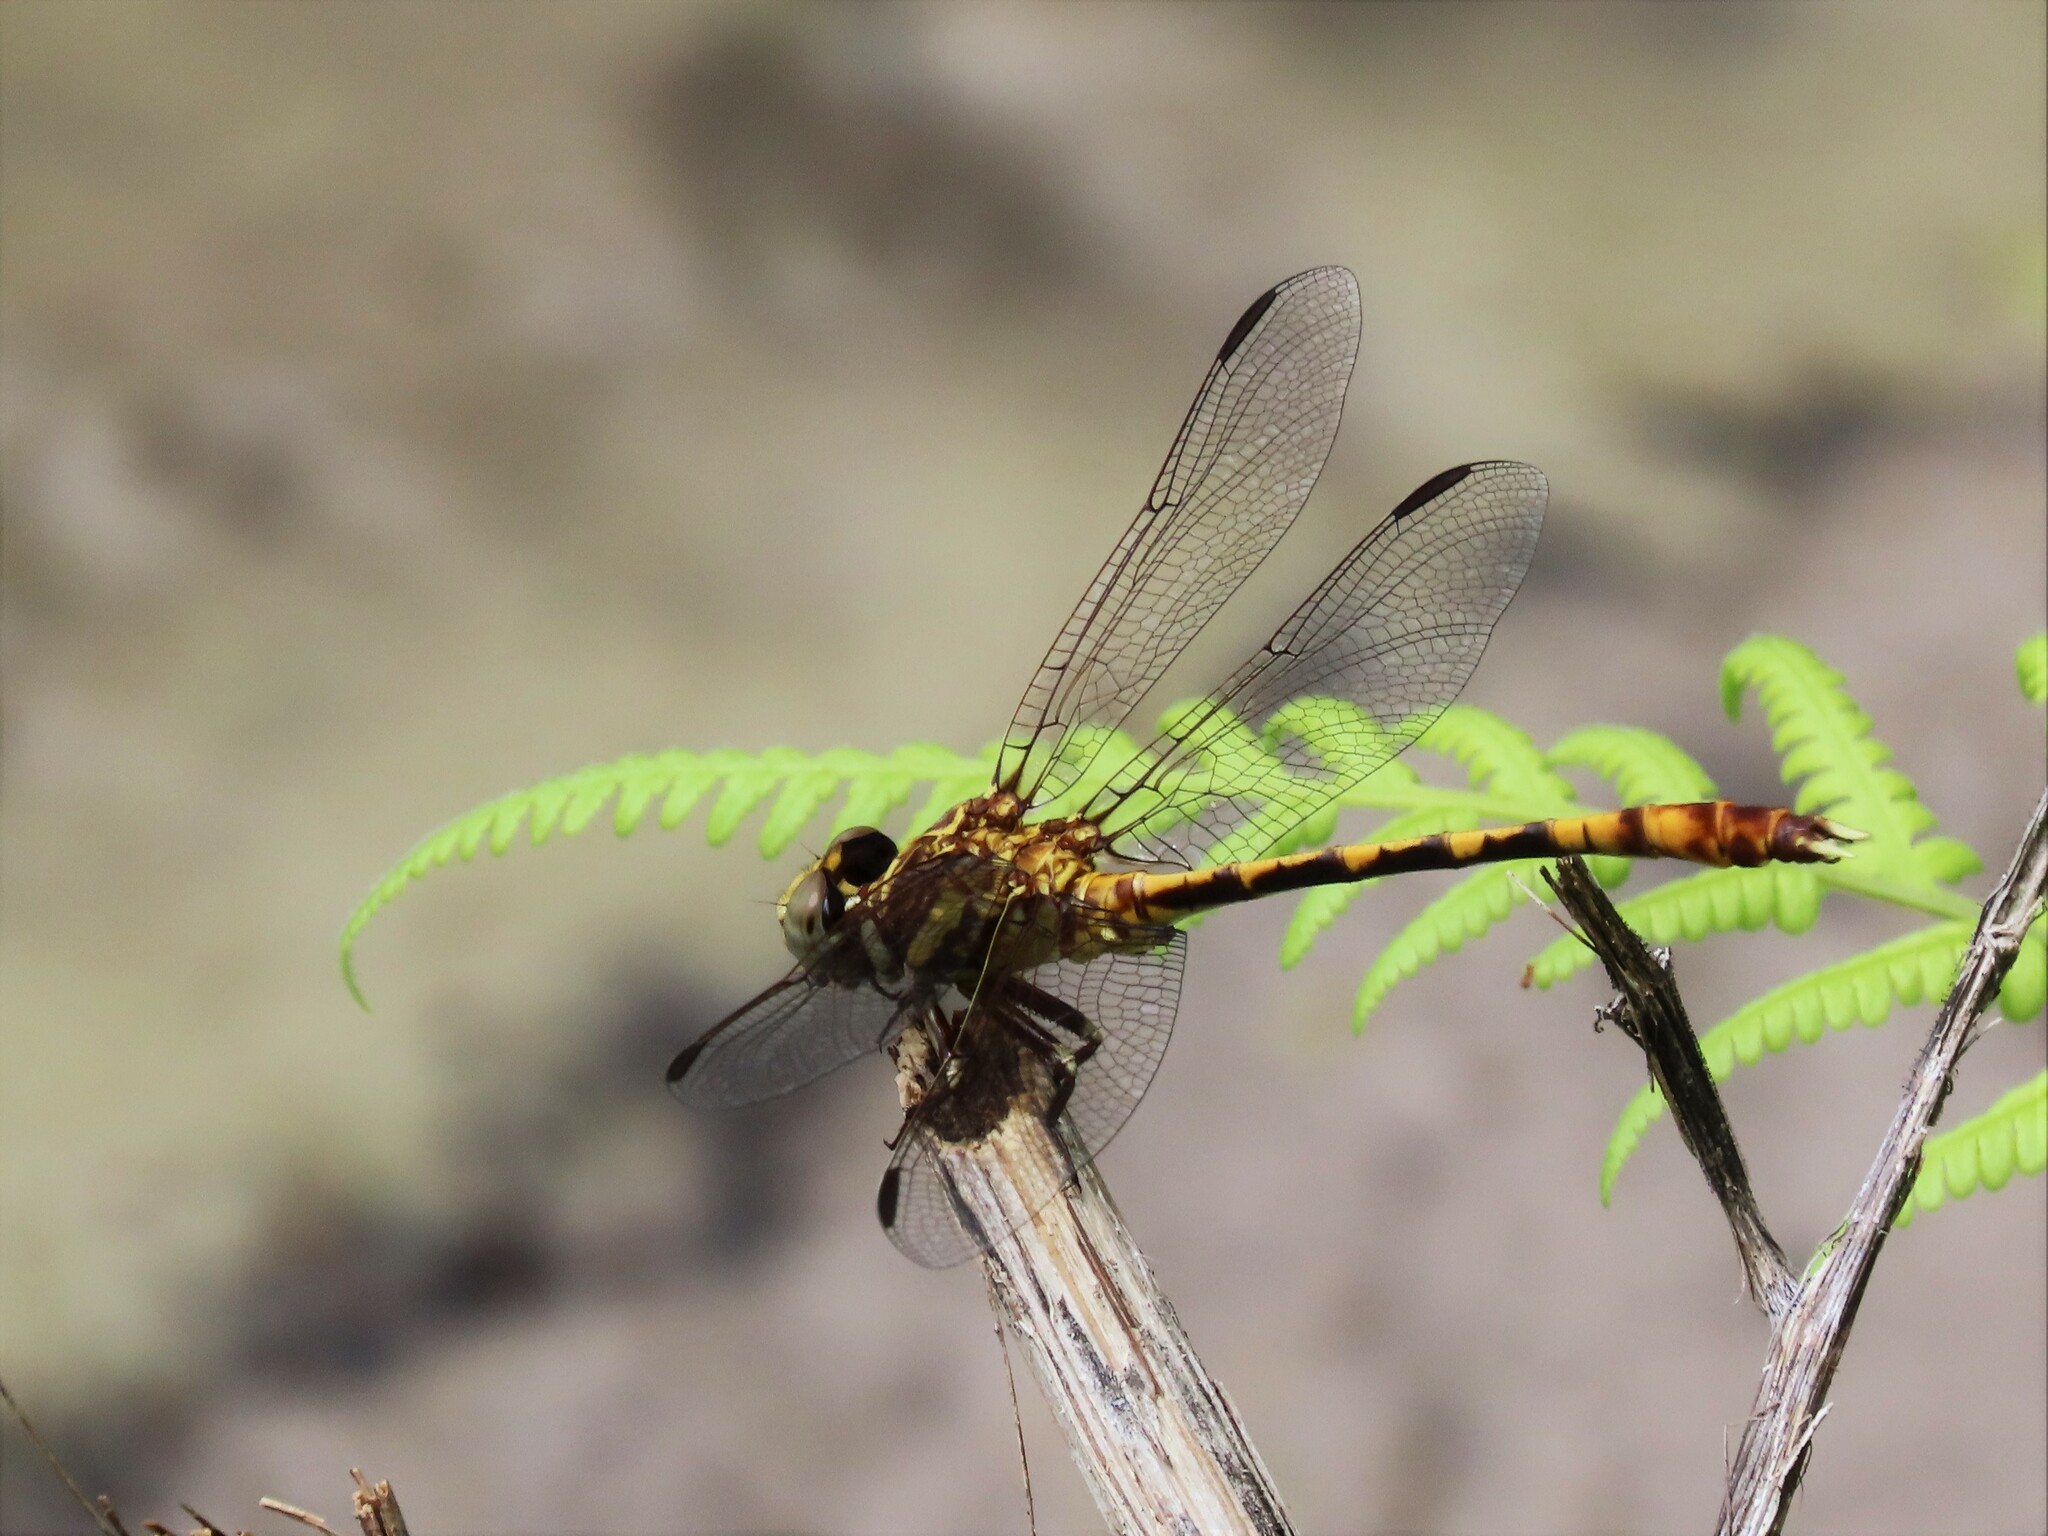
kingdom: Animalia
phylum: Arthropoda
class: Insecta
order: Odonata
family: Gomphidae
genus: Progomphus
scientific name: Progomphus alachuensis
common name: Tawny sanddragon
